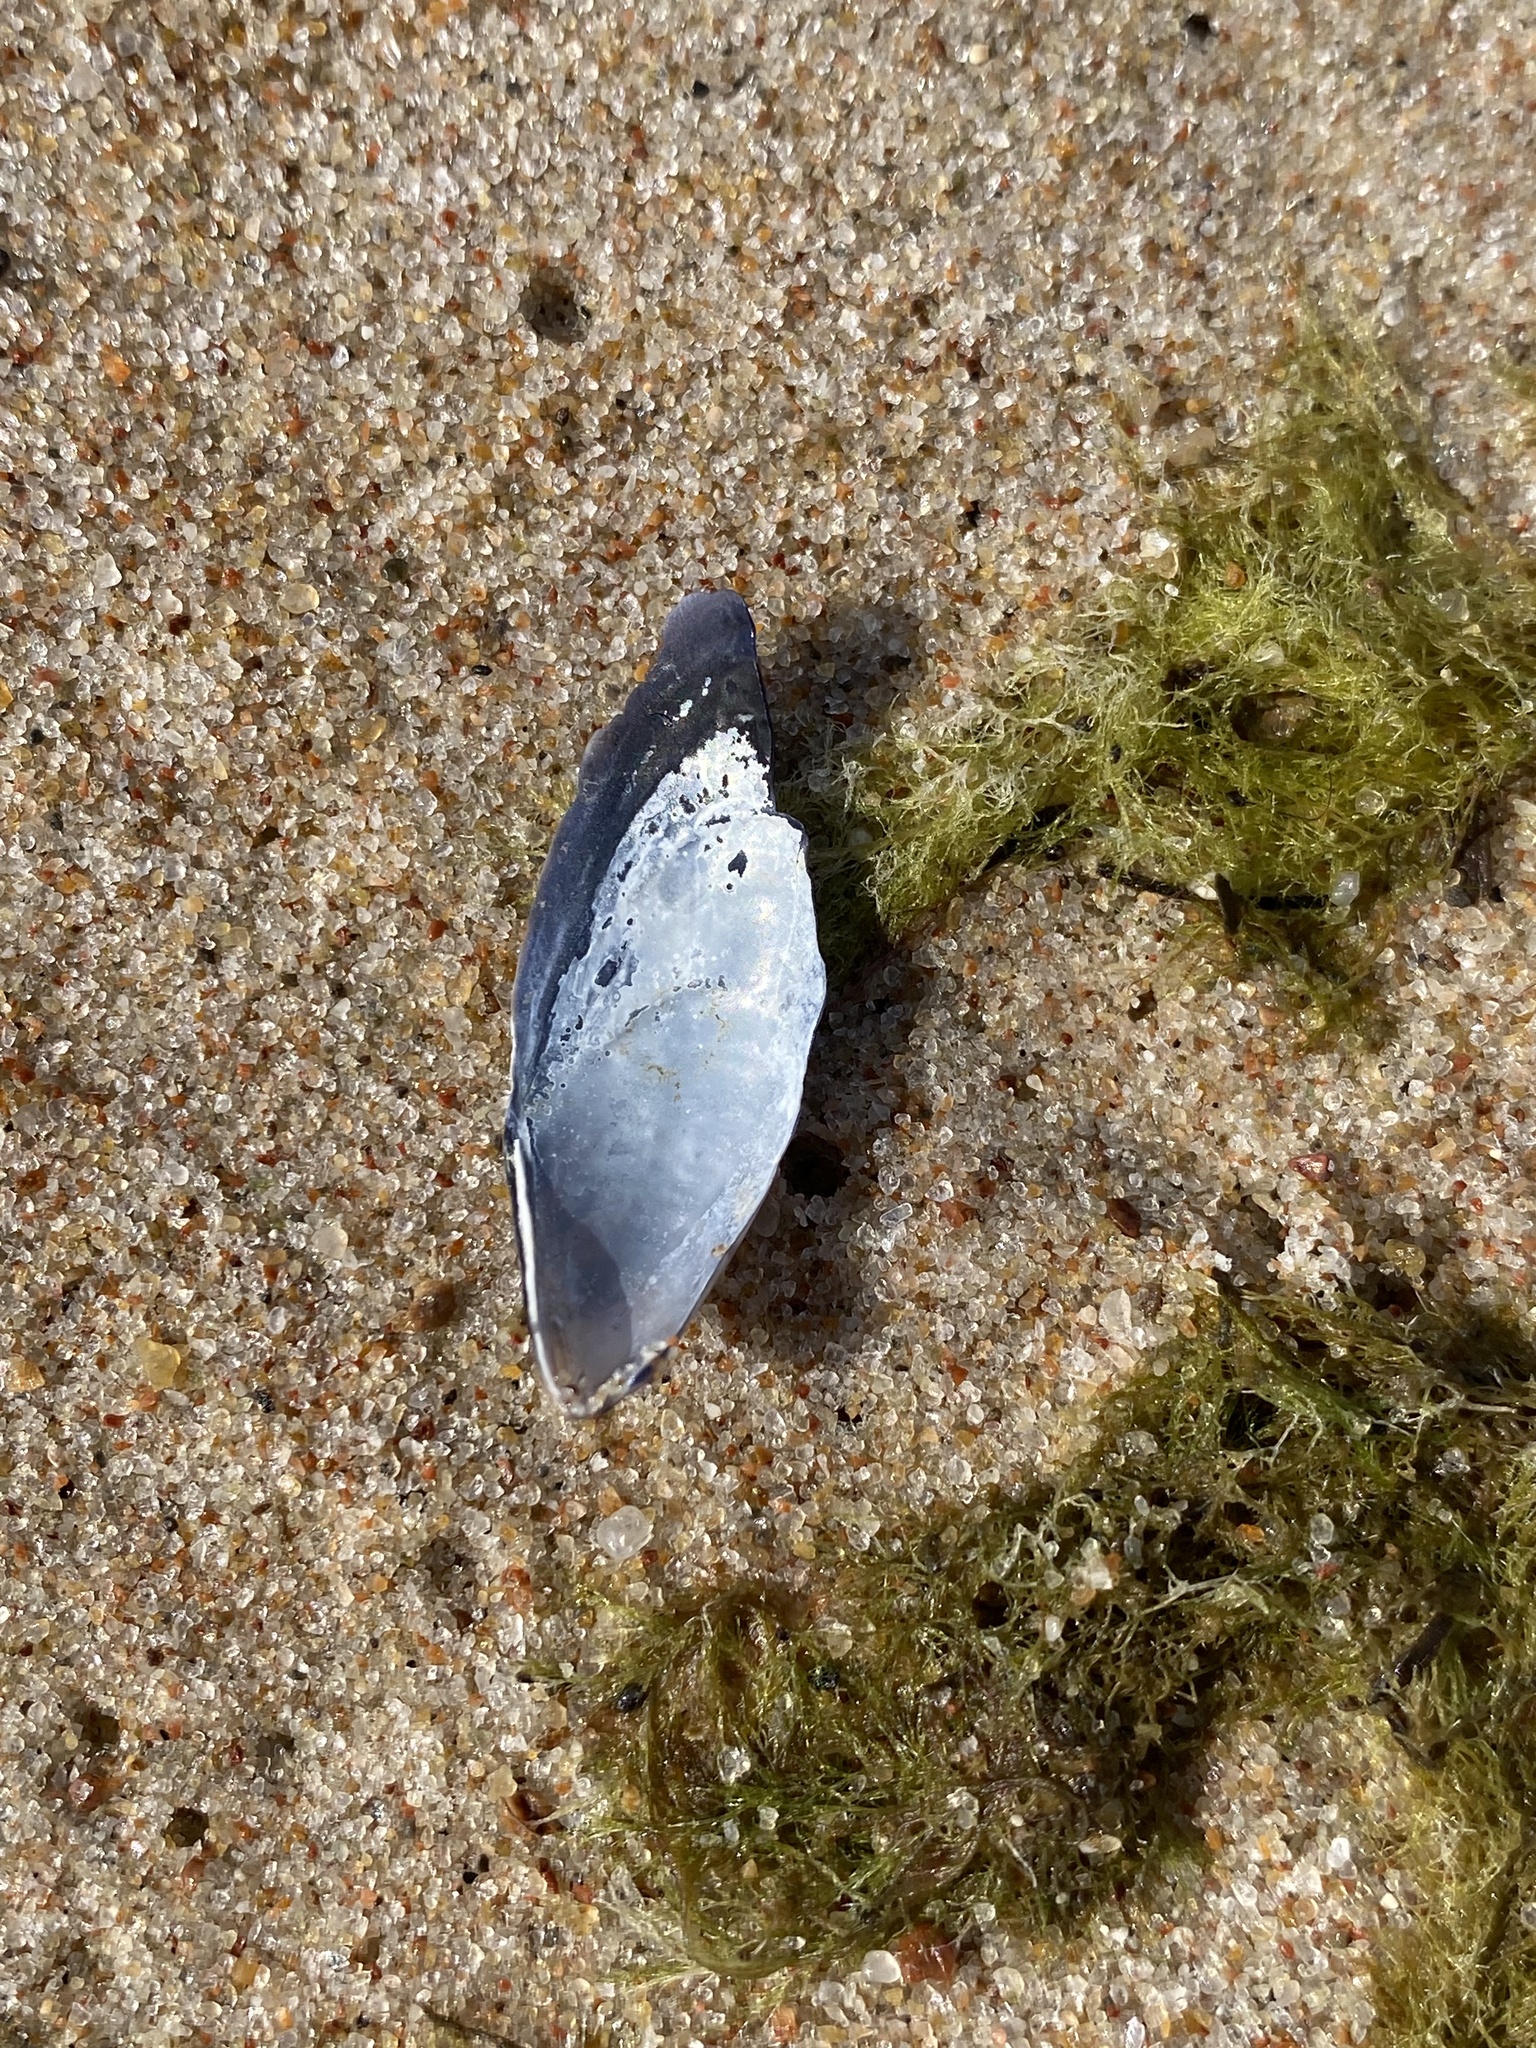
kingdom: Animalia
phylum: Mollusca
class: Bivalvia
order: Mytilida
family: Mytilidae
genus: Mytilus
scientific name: Mytilus
